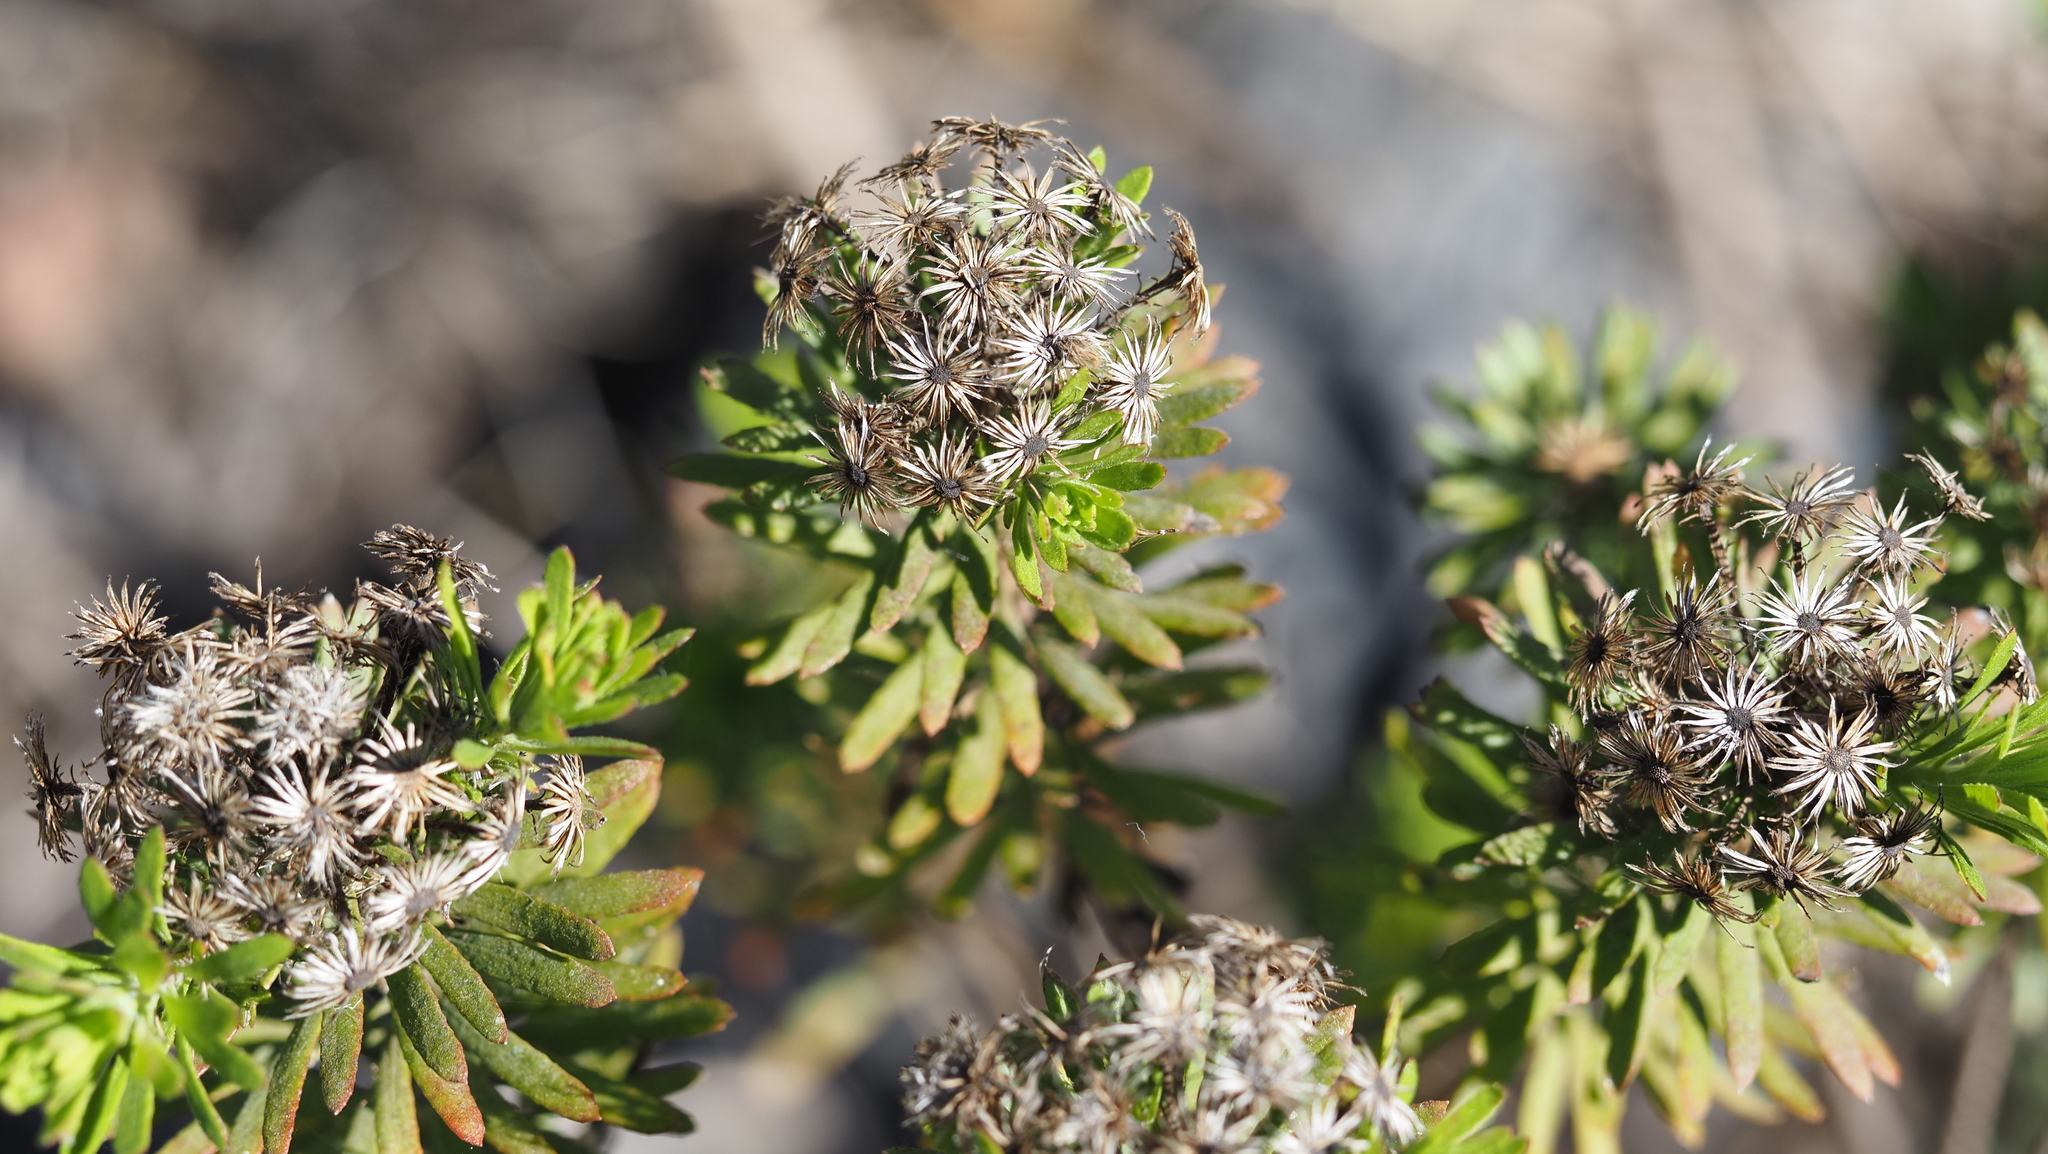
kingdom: Plantae
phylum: Tracheophyta
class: Magnoliopsida
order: Asterales
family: Asteraceae
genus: Allagopappus
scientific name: Allagopappus canariensis
